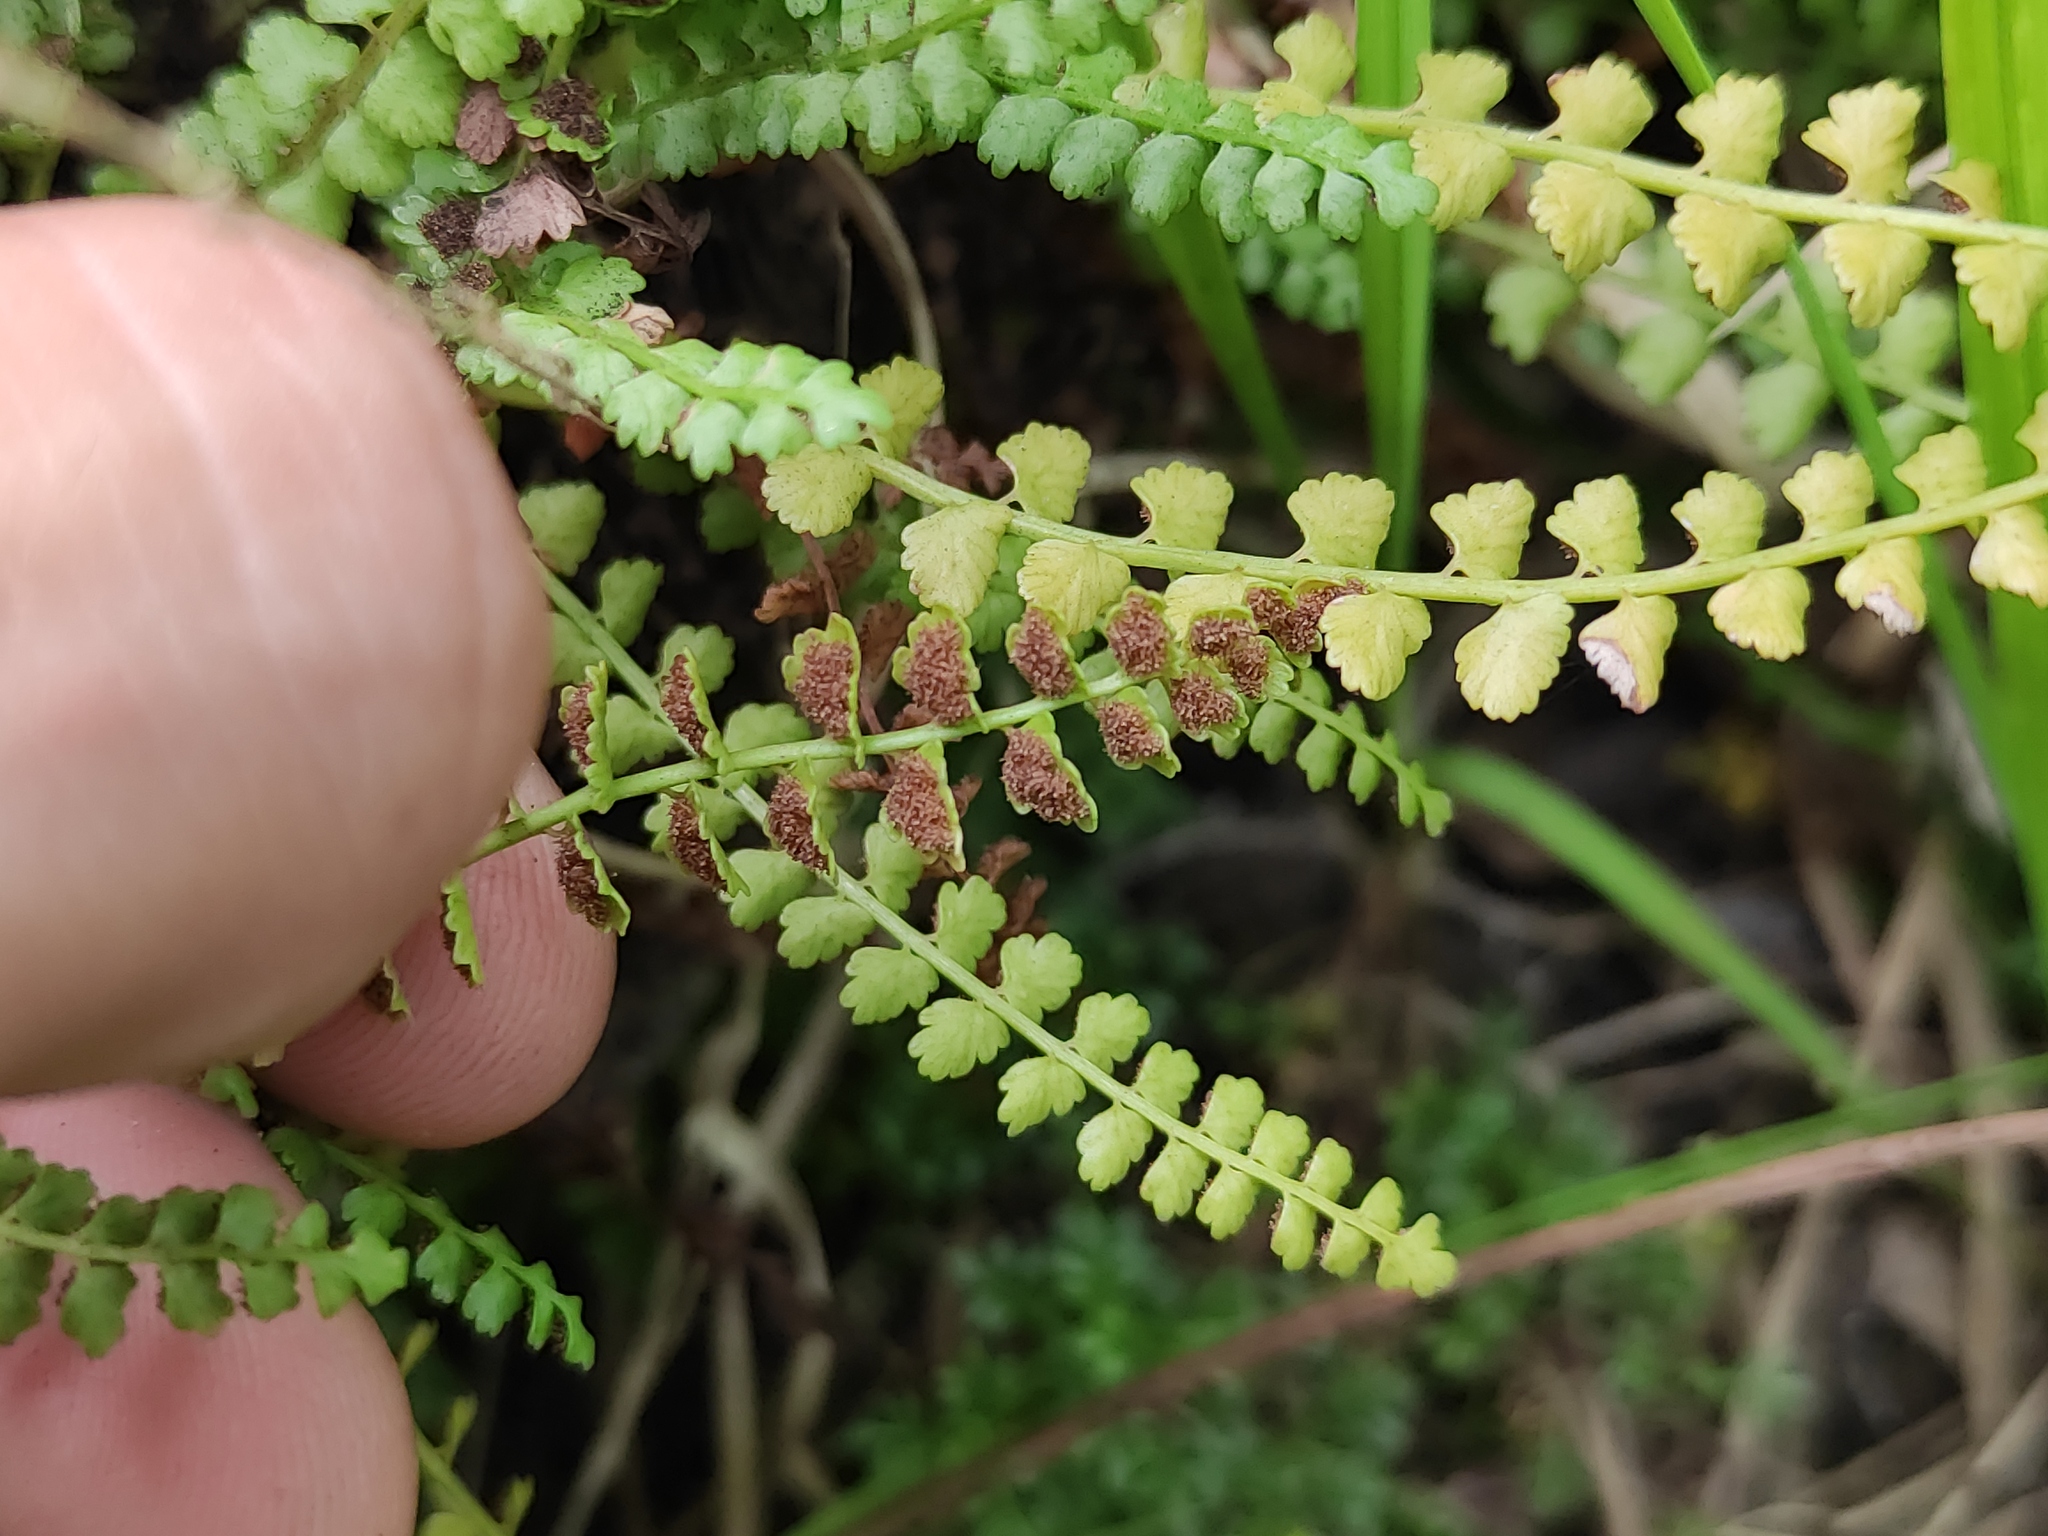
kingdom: Plantae
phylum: Tracheophyta
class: Polypodiopsida
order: Polypodiales
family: Aspleniaceae
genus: Asplenium
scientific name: Asplenium viride
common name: Green spleenwort
